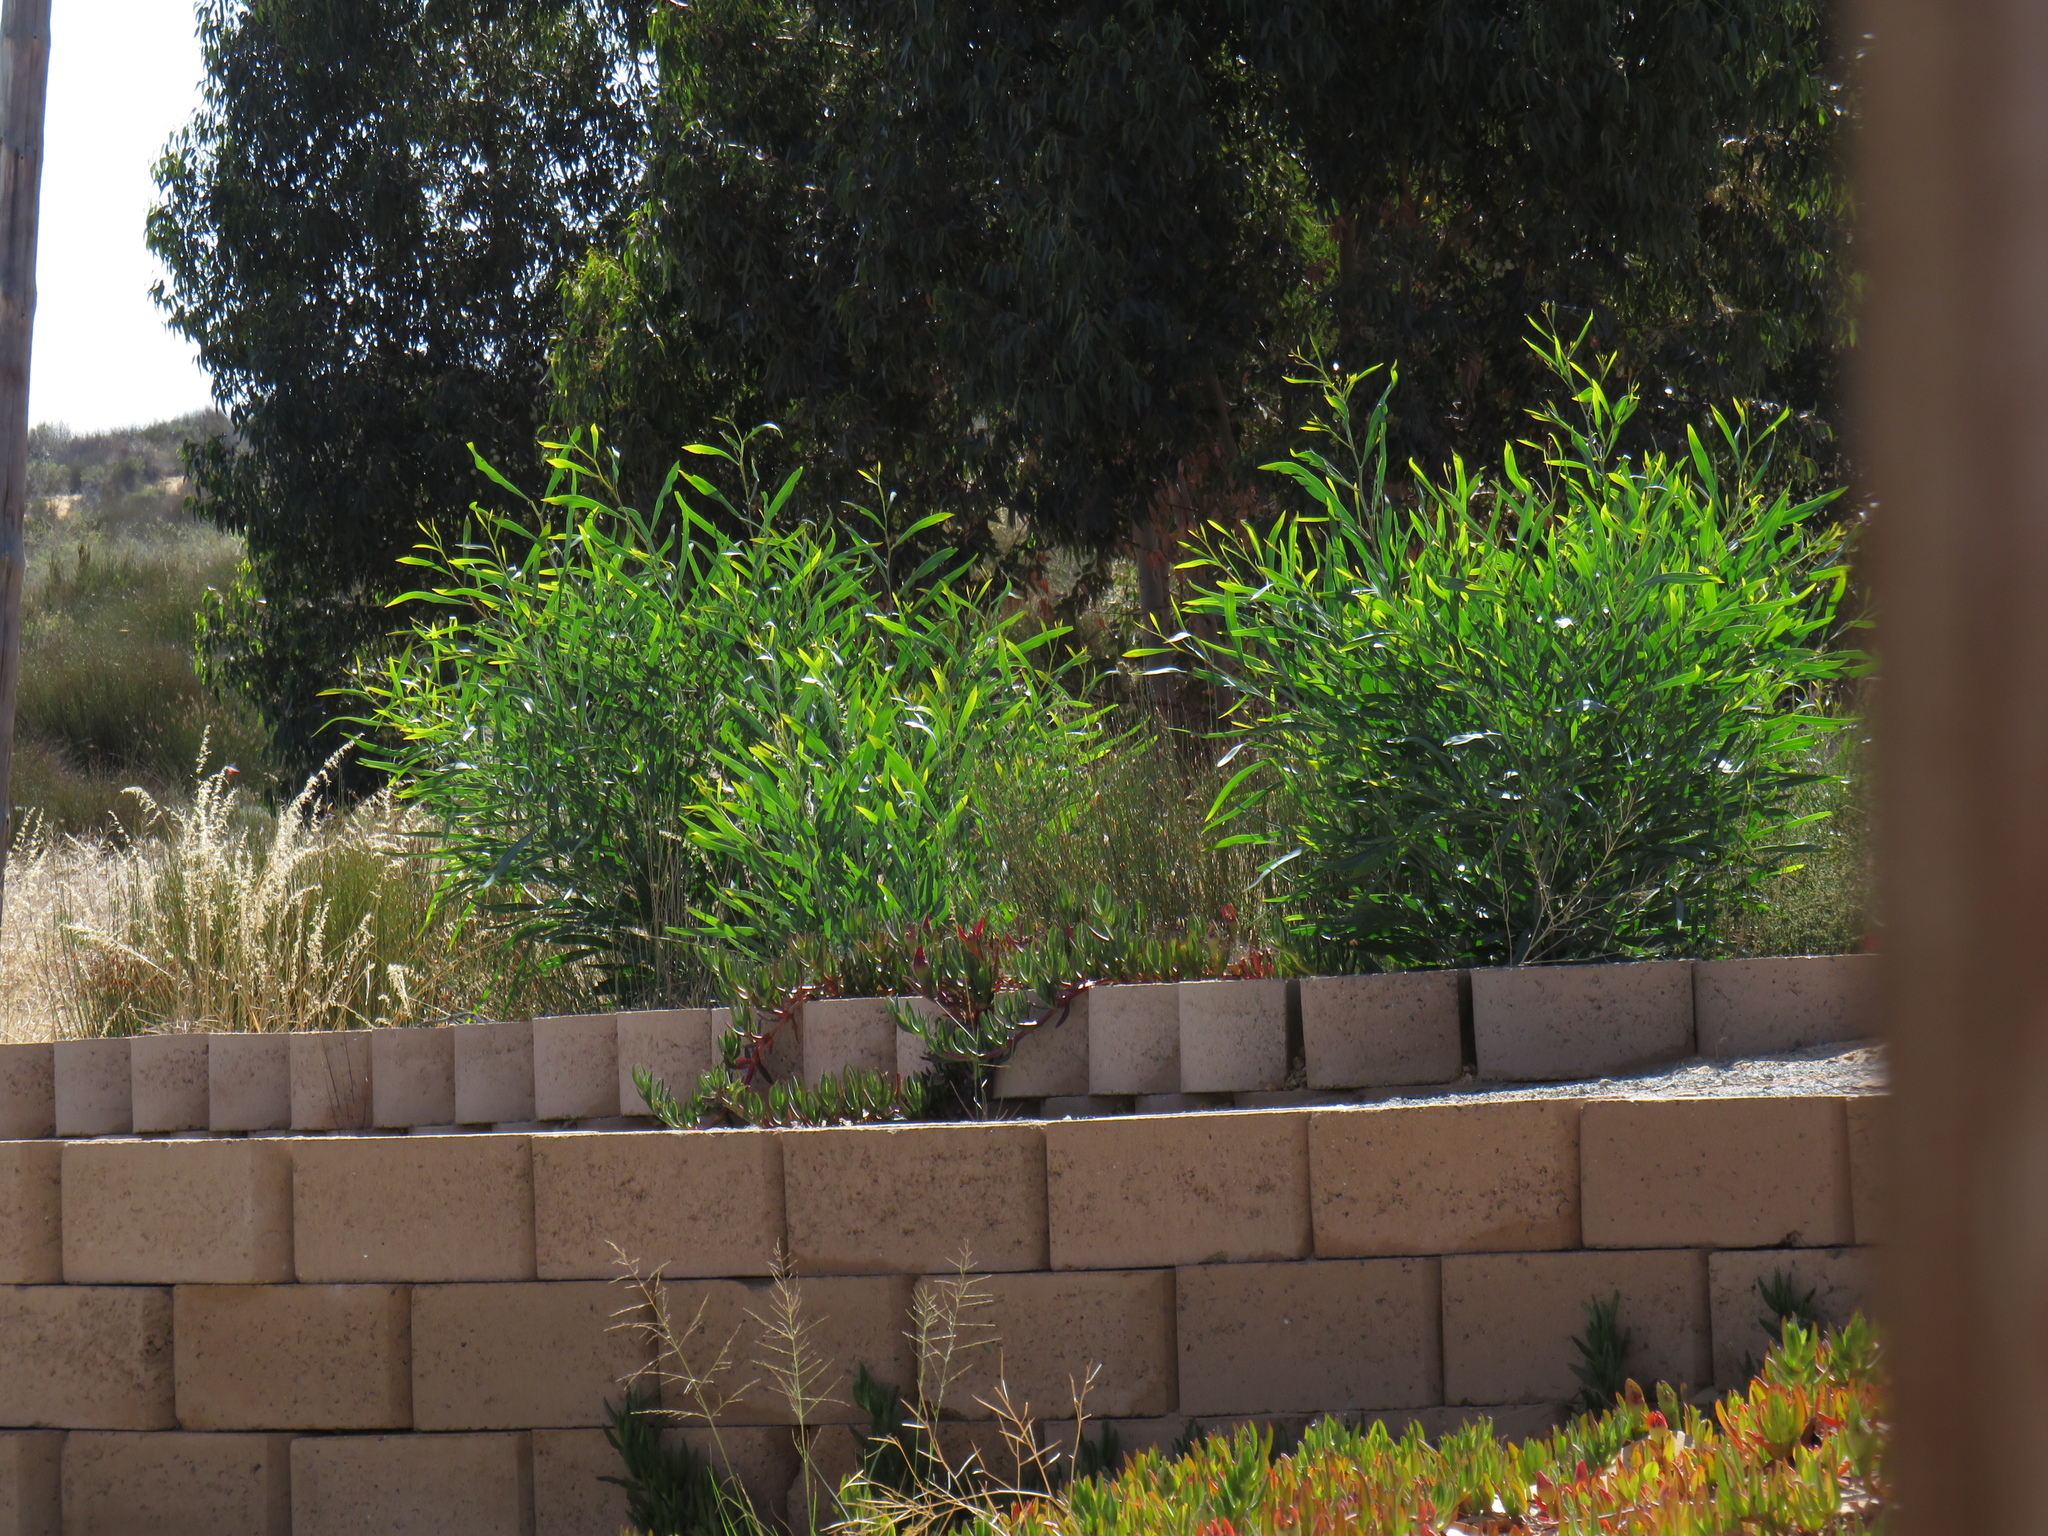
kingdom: Plantae
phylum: Tracheophyta
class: Magnoliopsida
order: Fabales
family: Fabaceae
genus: Acacia
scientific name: Acacia saligna
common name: Orange wattle
